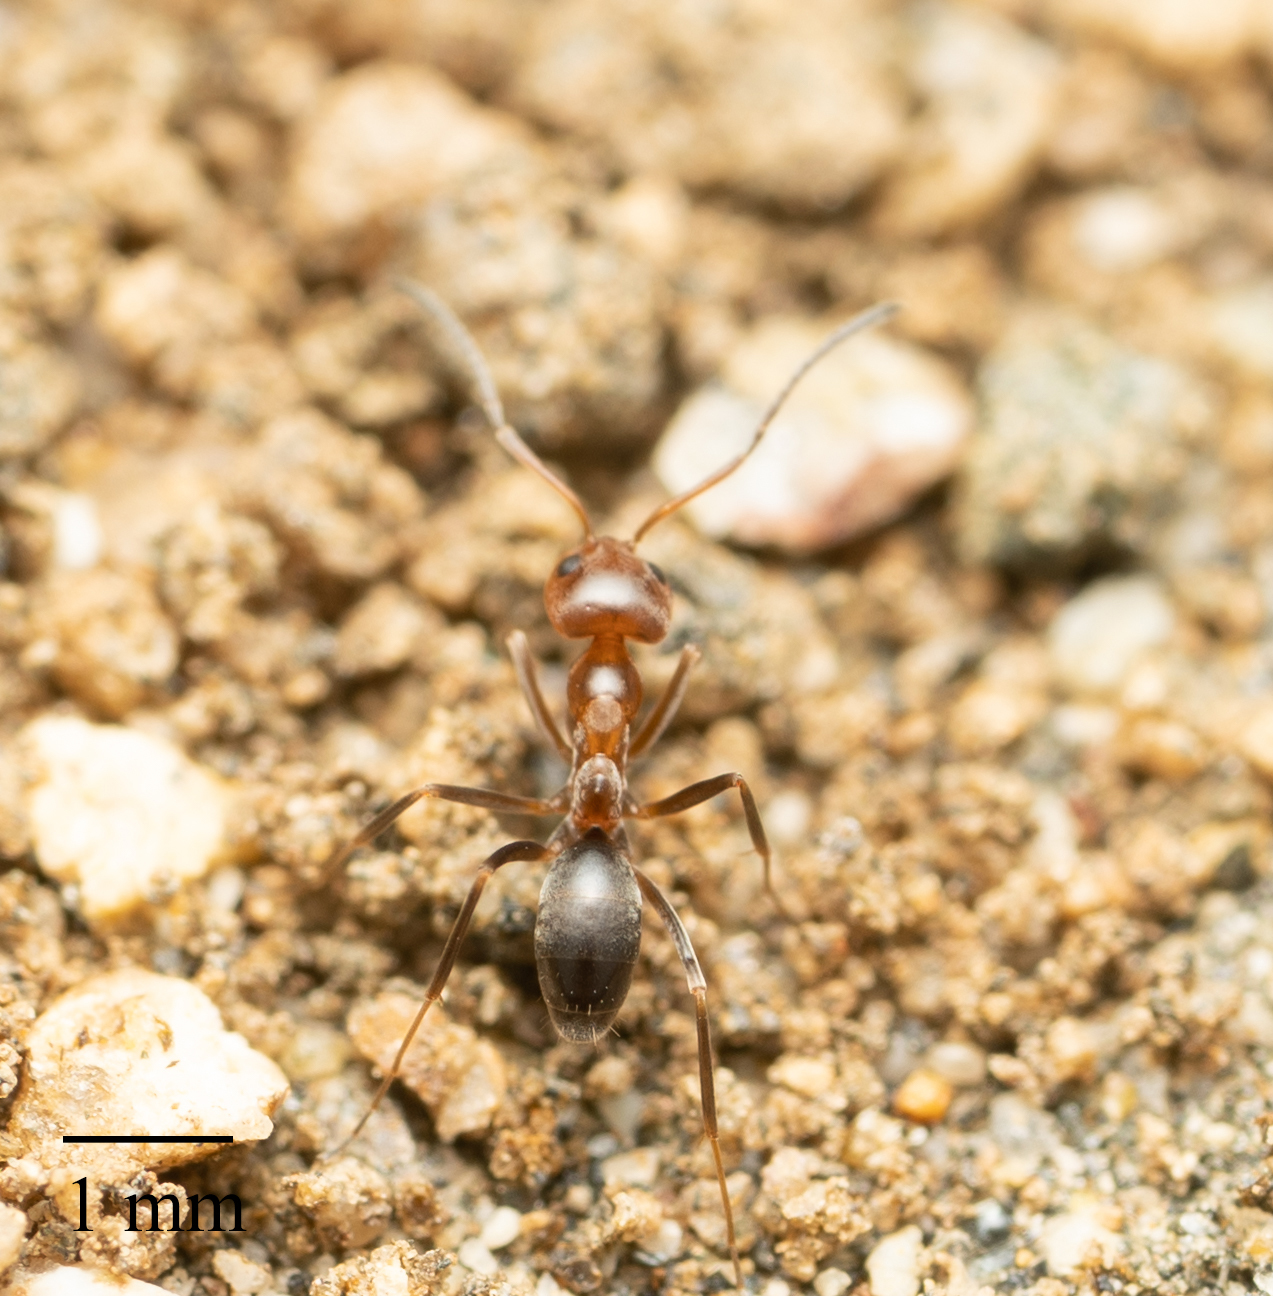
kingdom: Animalia
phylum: Arthropoda
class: Insecta
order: Hymenoptera
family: Formicidae
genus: Dorymyrmex
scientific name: Dorymyrmex bicolor
